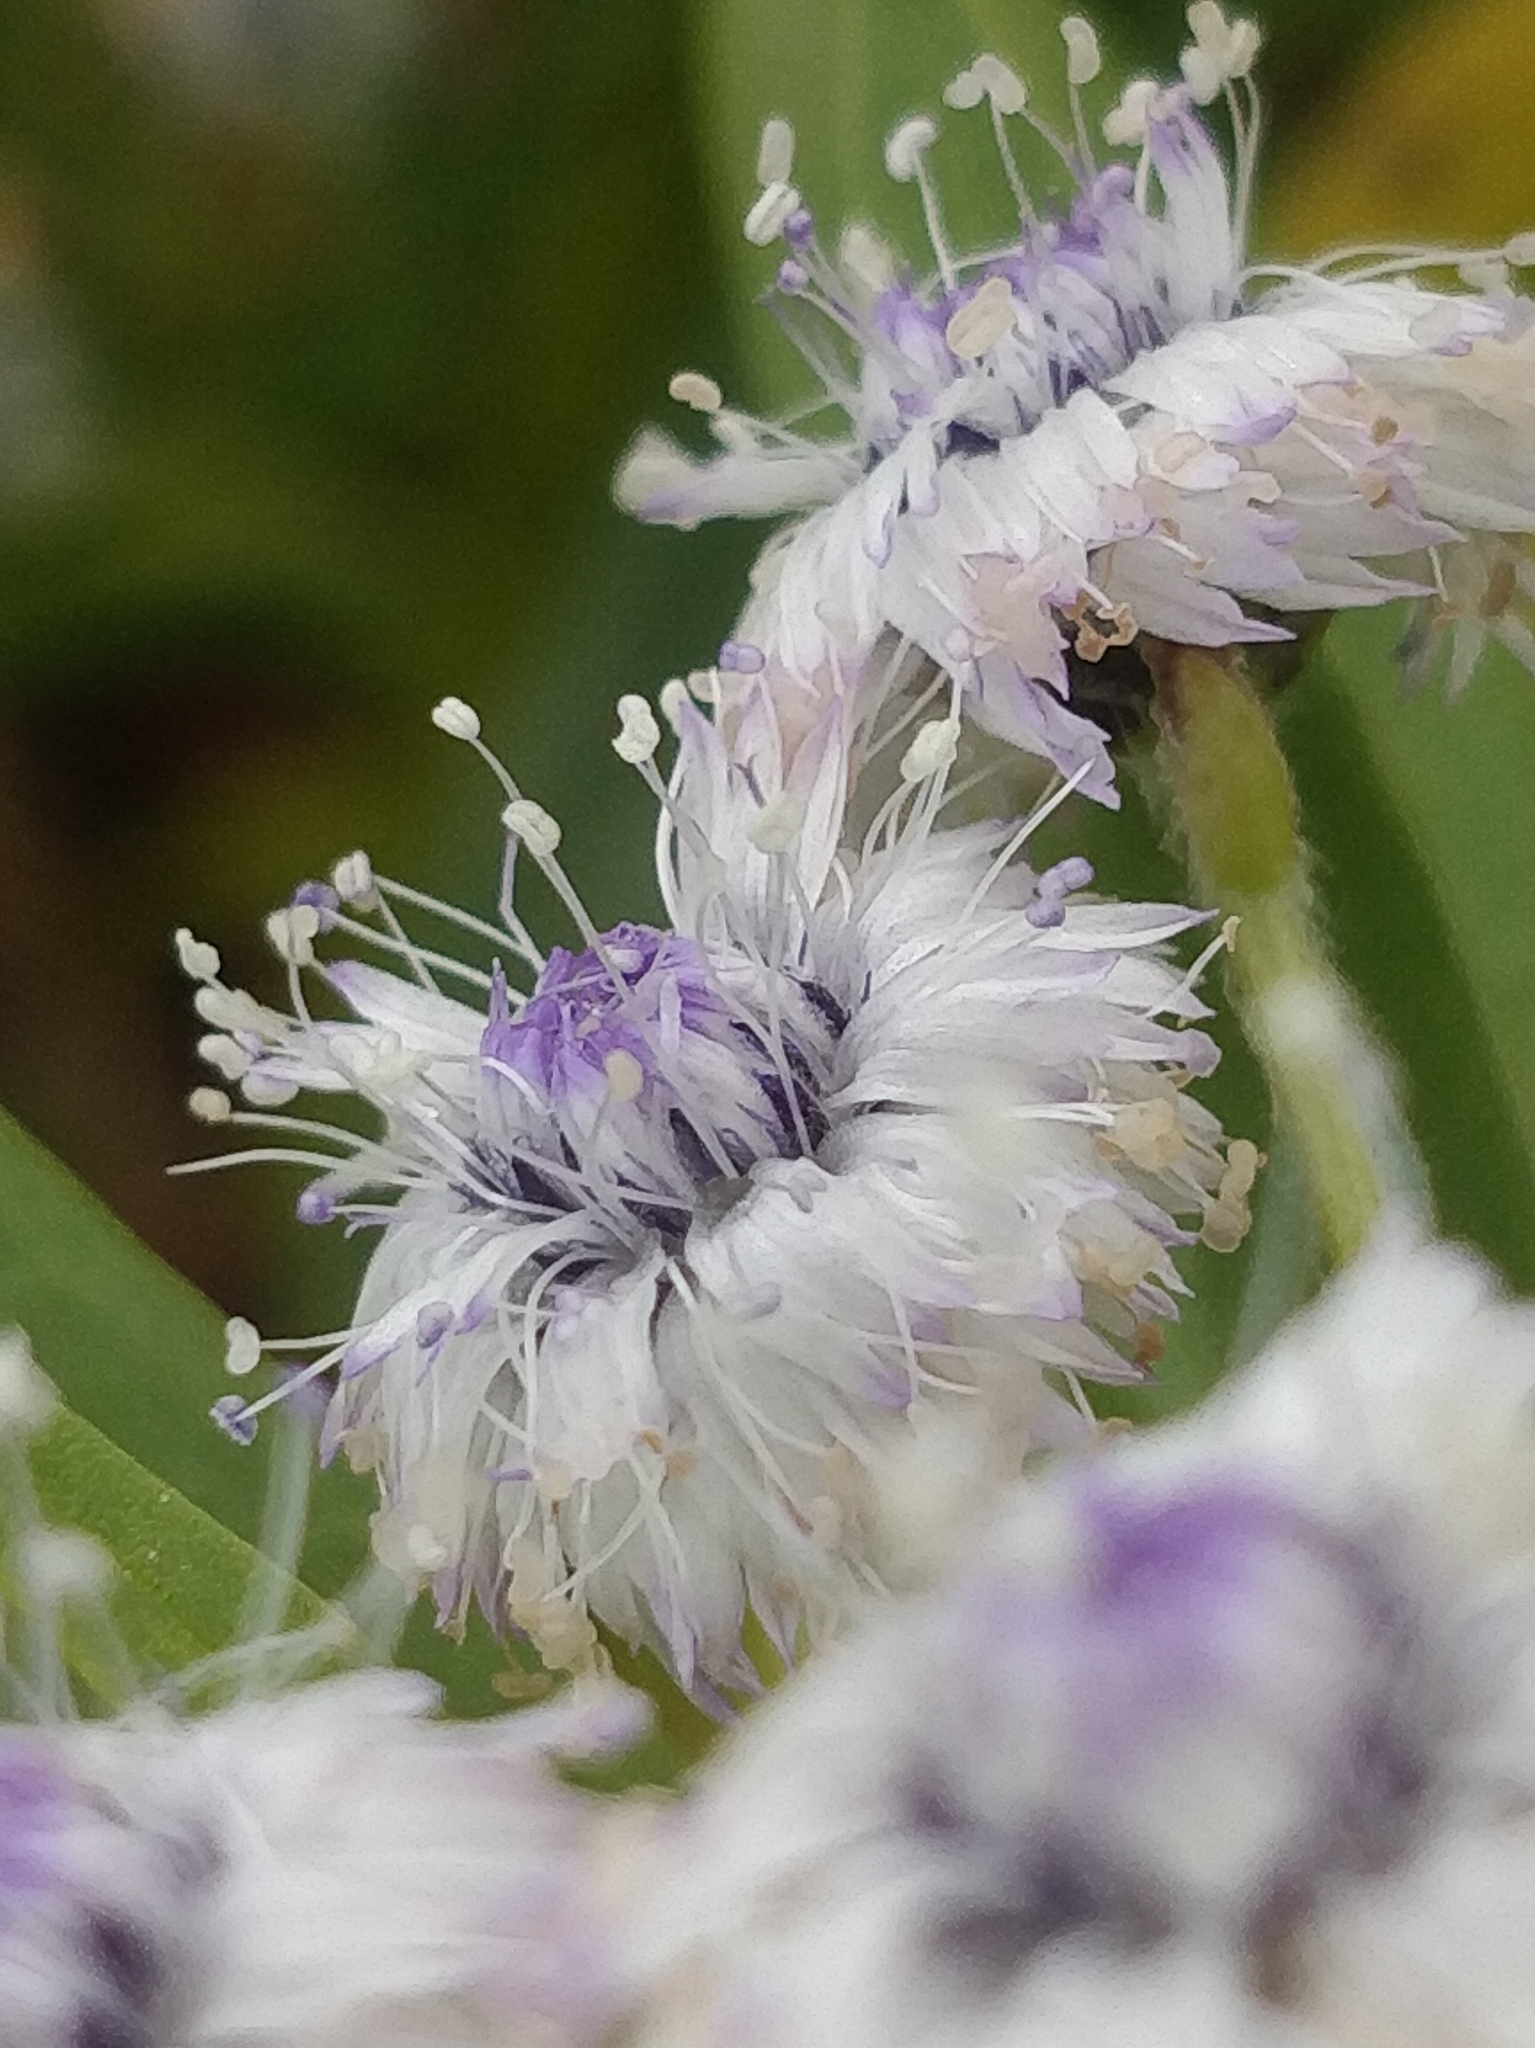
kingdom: Plantae
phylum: Tracheophyta
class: Magnoliopsida
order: Lamiales
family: Plantaginaceae
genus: Globularia
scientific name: Globularia salicina
